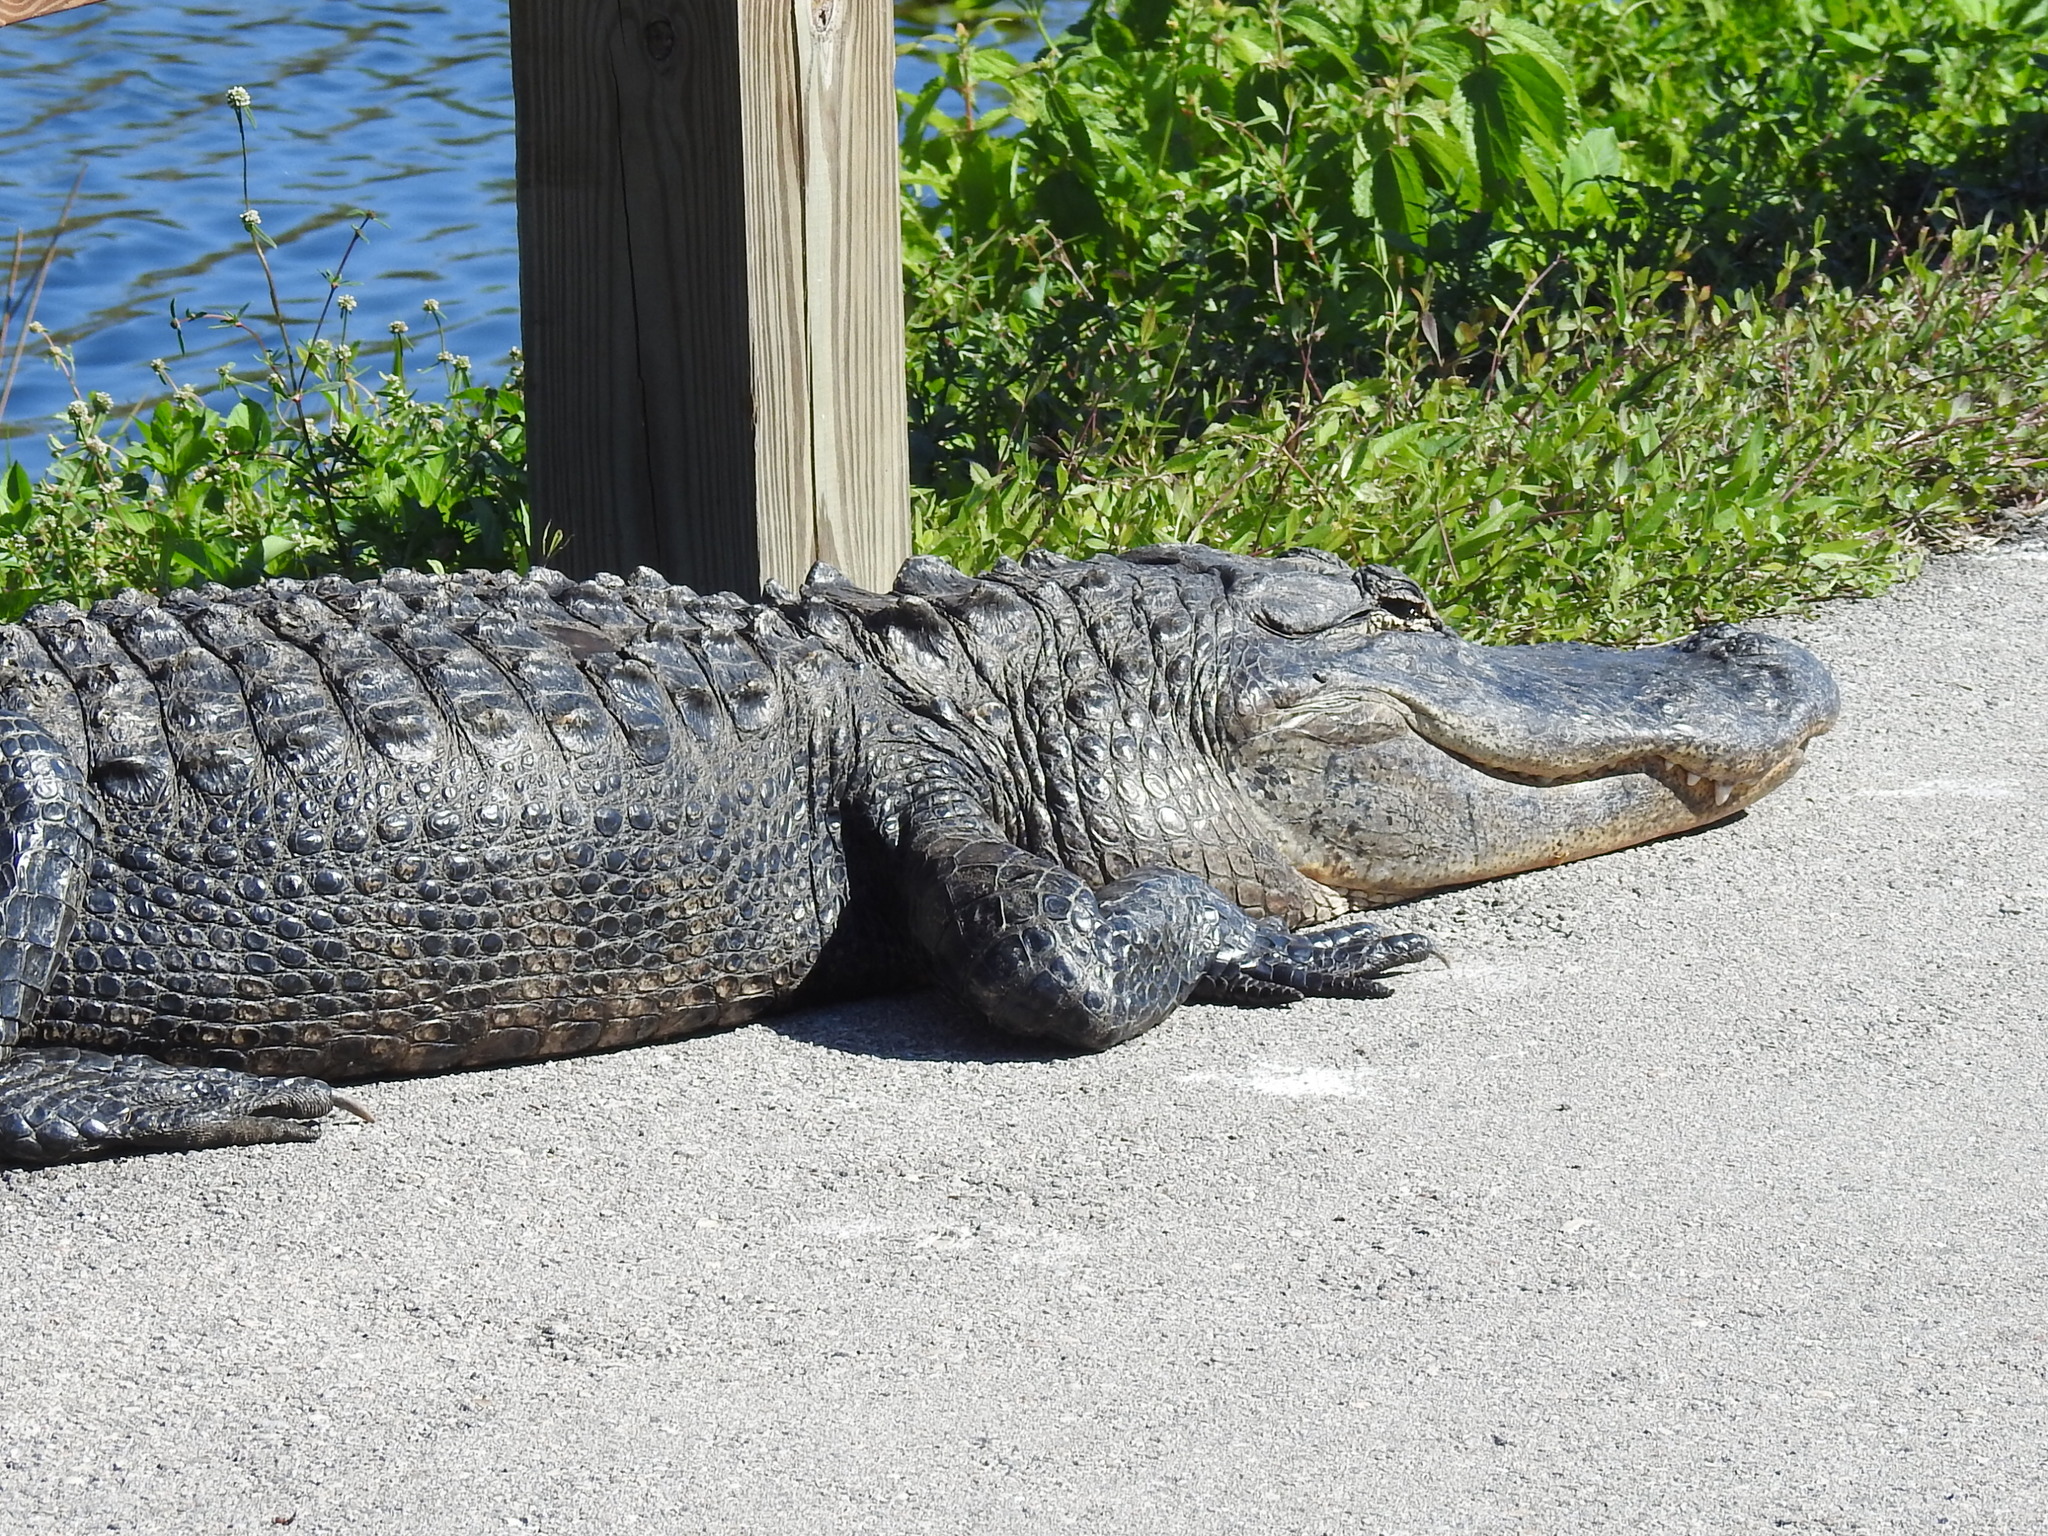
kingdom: Animalia
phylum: Chordata
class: Crocodylia
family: Alligatoridae
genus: Alligator
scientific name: Alligator mississippiensis
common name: American alligator
